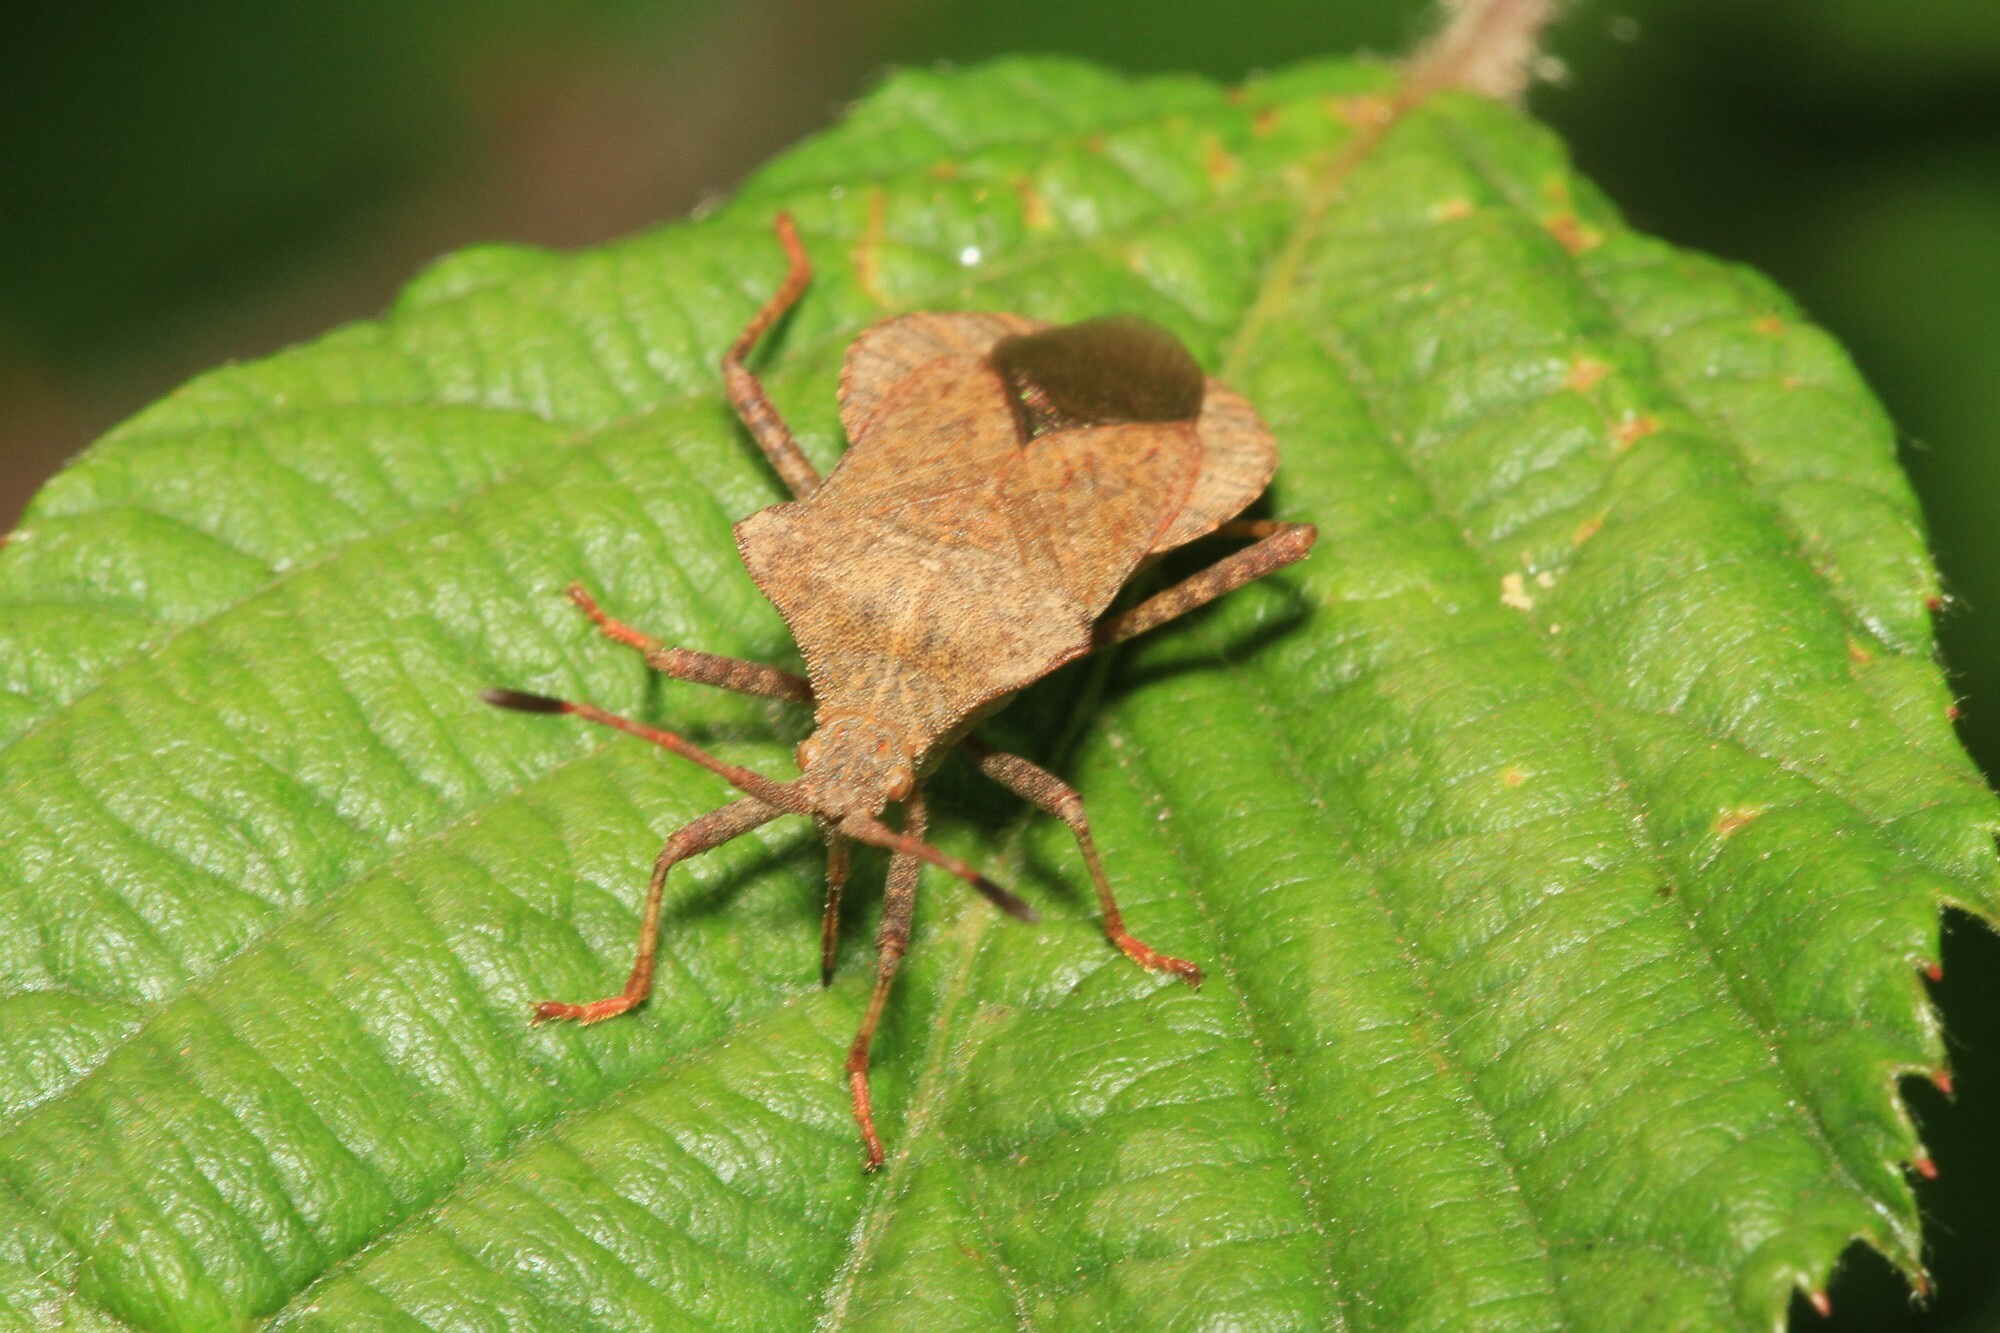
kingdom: Animalia
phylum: Arthropoda
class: Insecta
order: Hemiptera
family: Coreidae
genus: Coreus
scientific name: Coreus marginatus
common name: Dock bug
